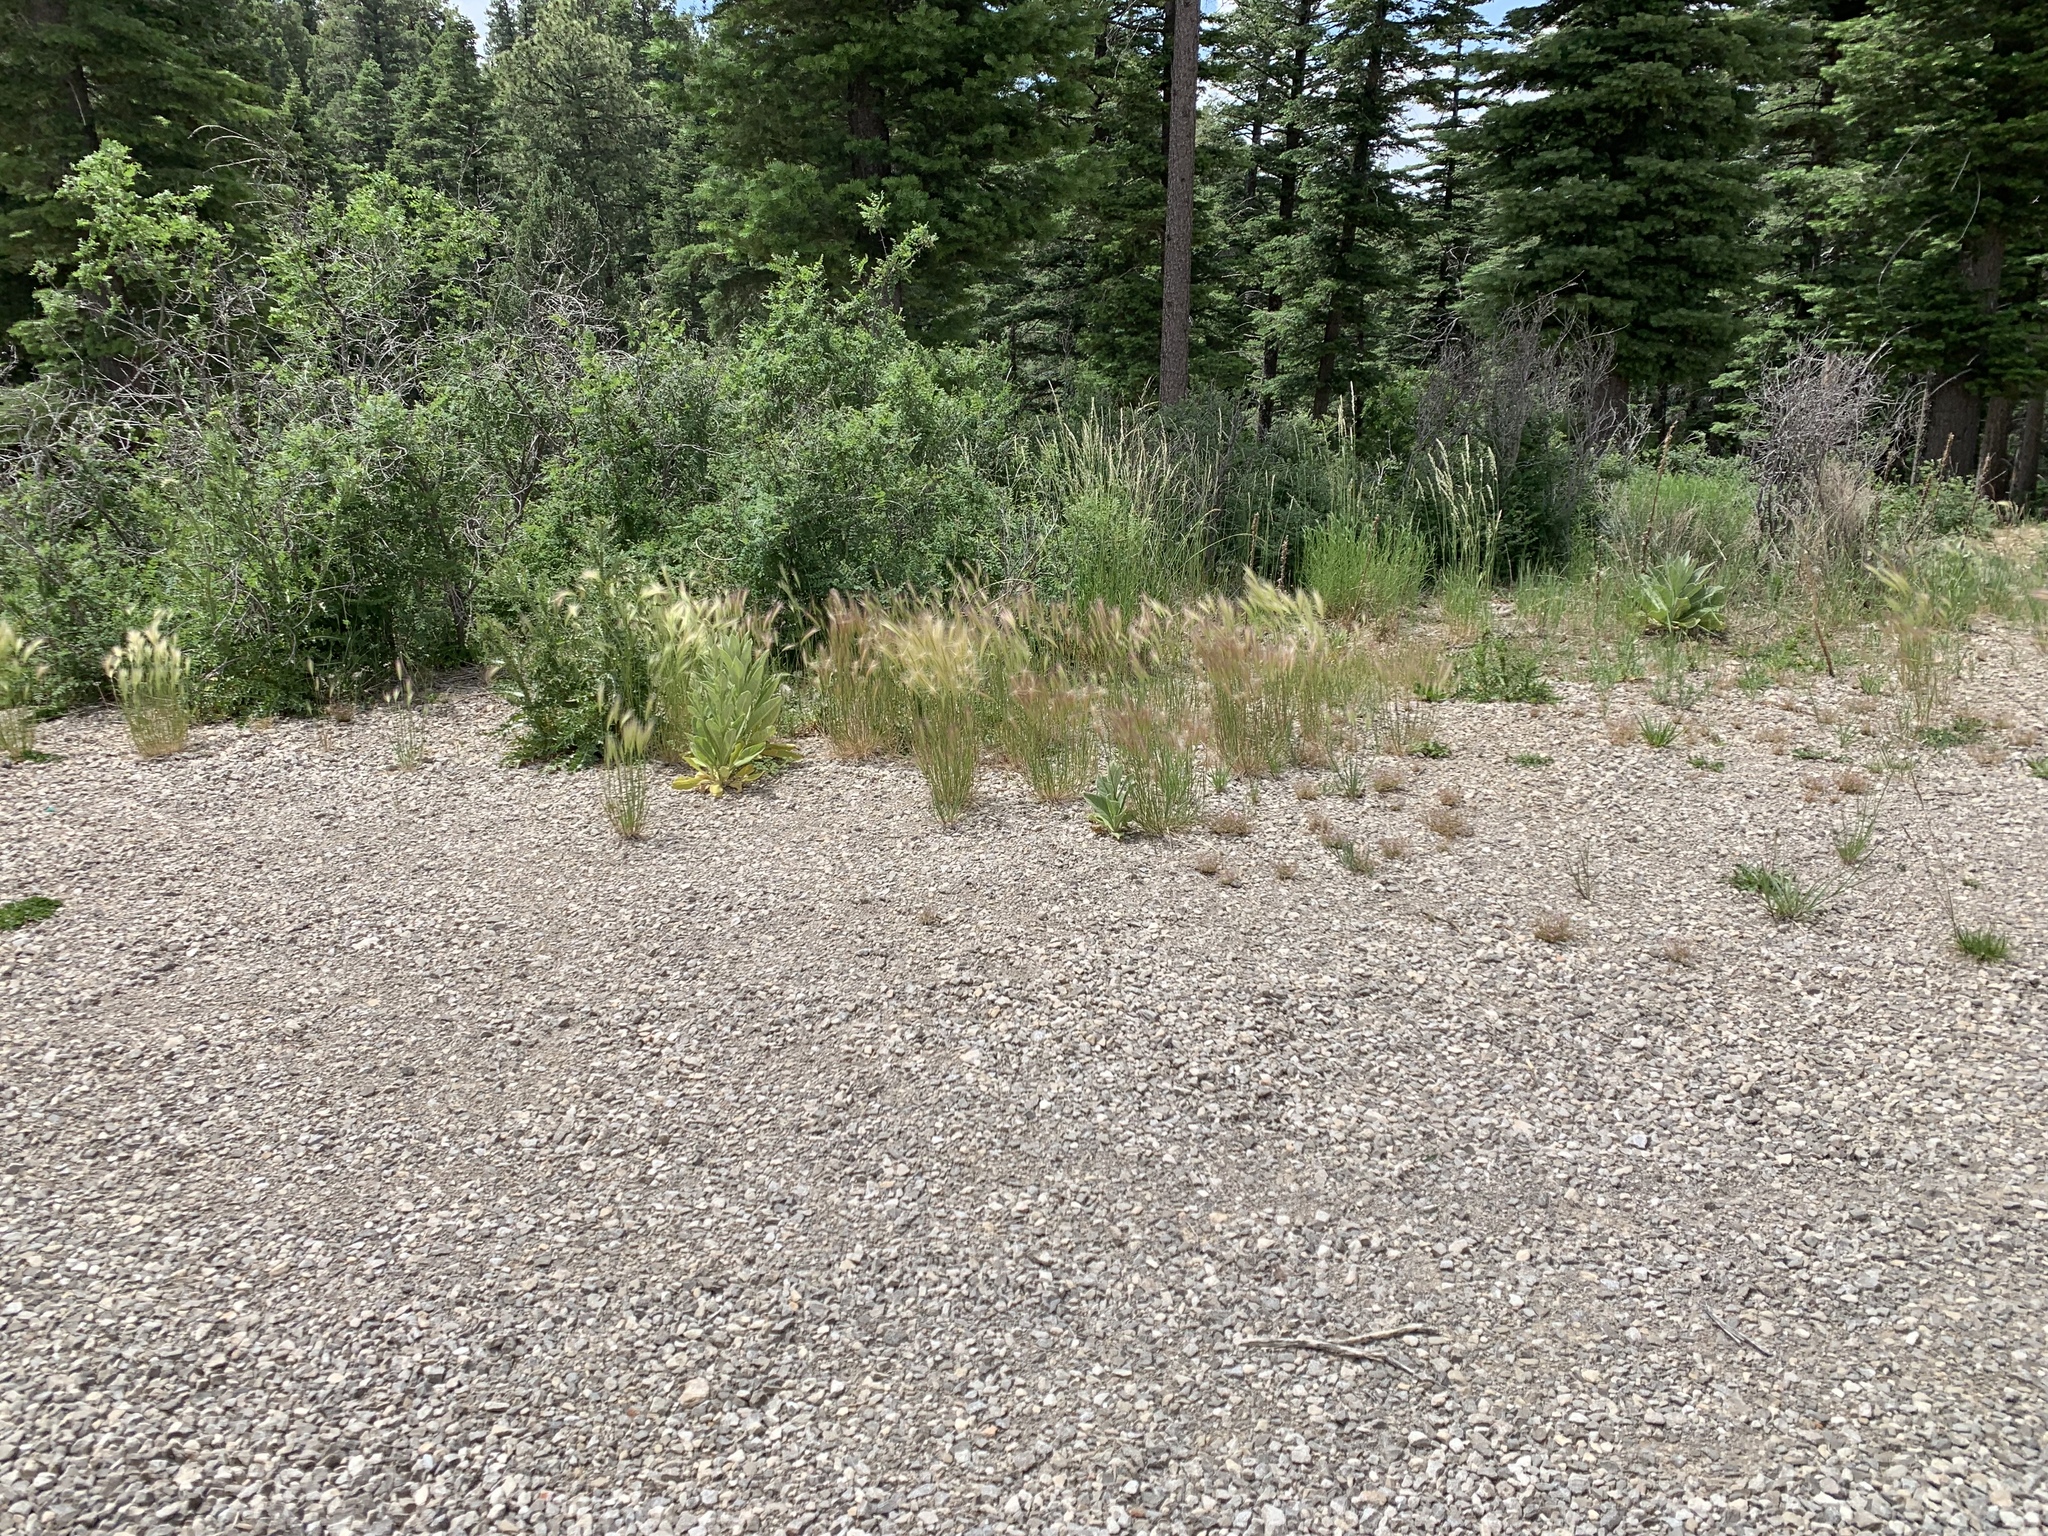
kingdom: Plantae
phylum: Tracheophyta
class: Liliopsida
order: Poales
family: Poaceae
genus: Hordeum
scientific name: Hordeum jubatum
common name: Foxtail barley
